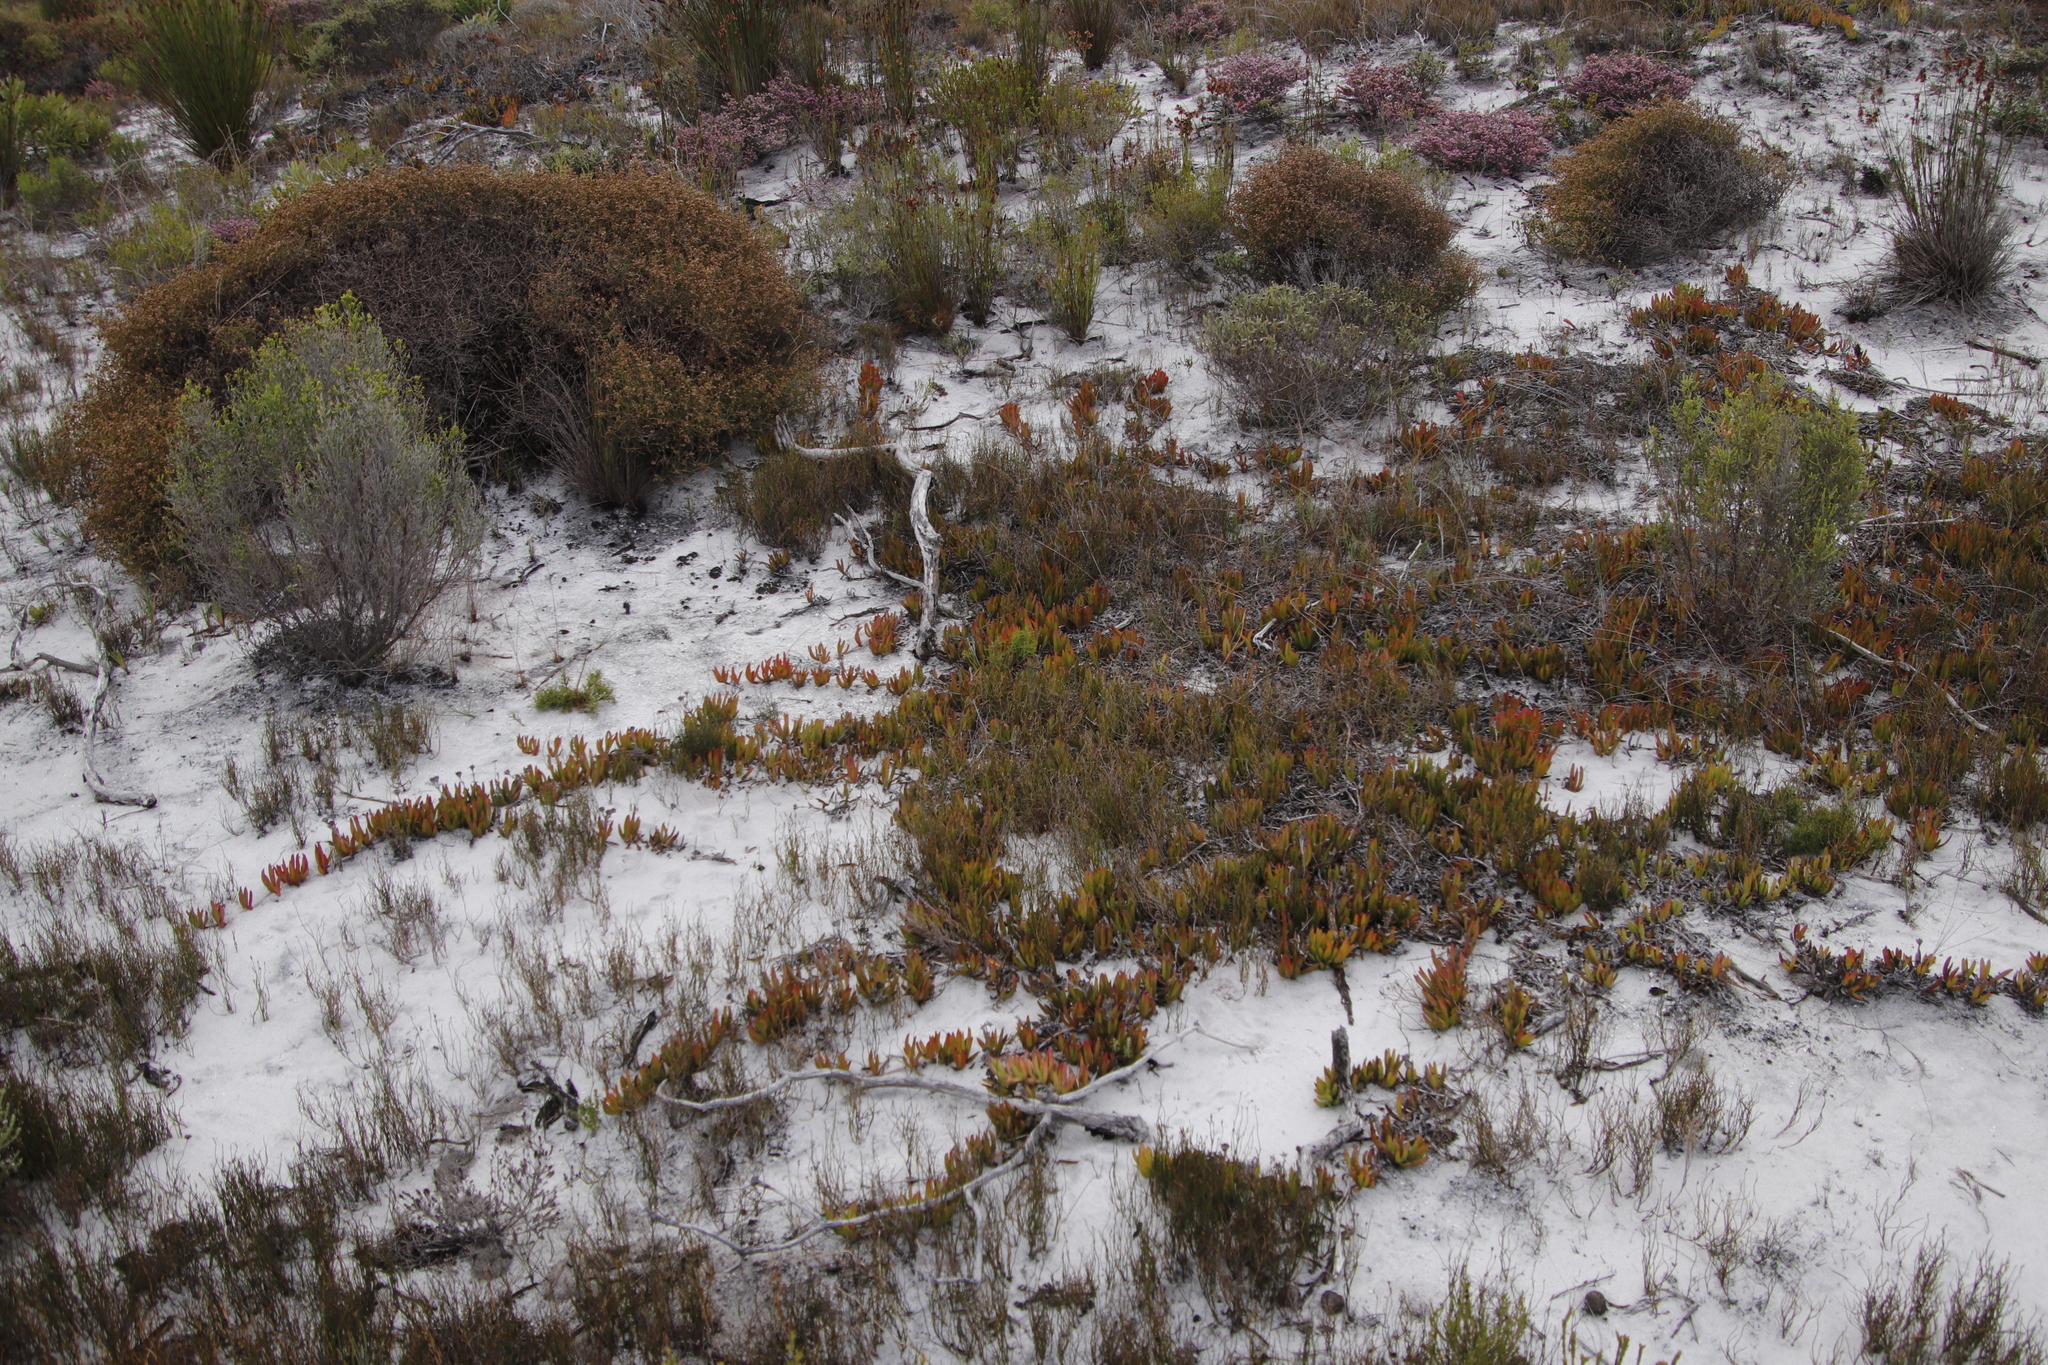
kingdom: Plantae
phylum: Tracheophyta
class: Magnoliopsida
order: Caryophyllales
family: Aizoaceae
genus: Ruschia
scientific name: Ruschia sarmentosa
